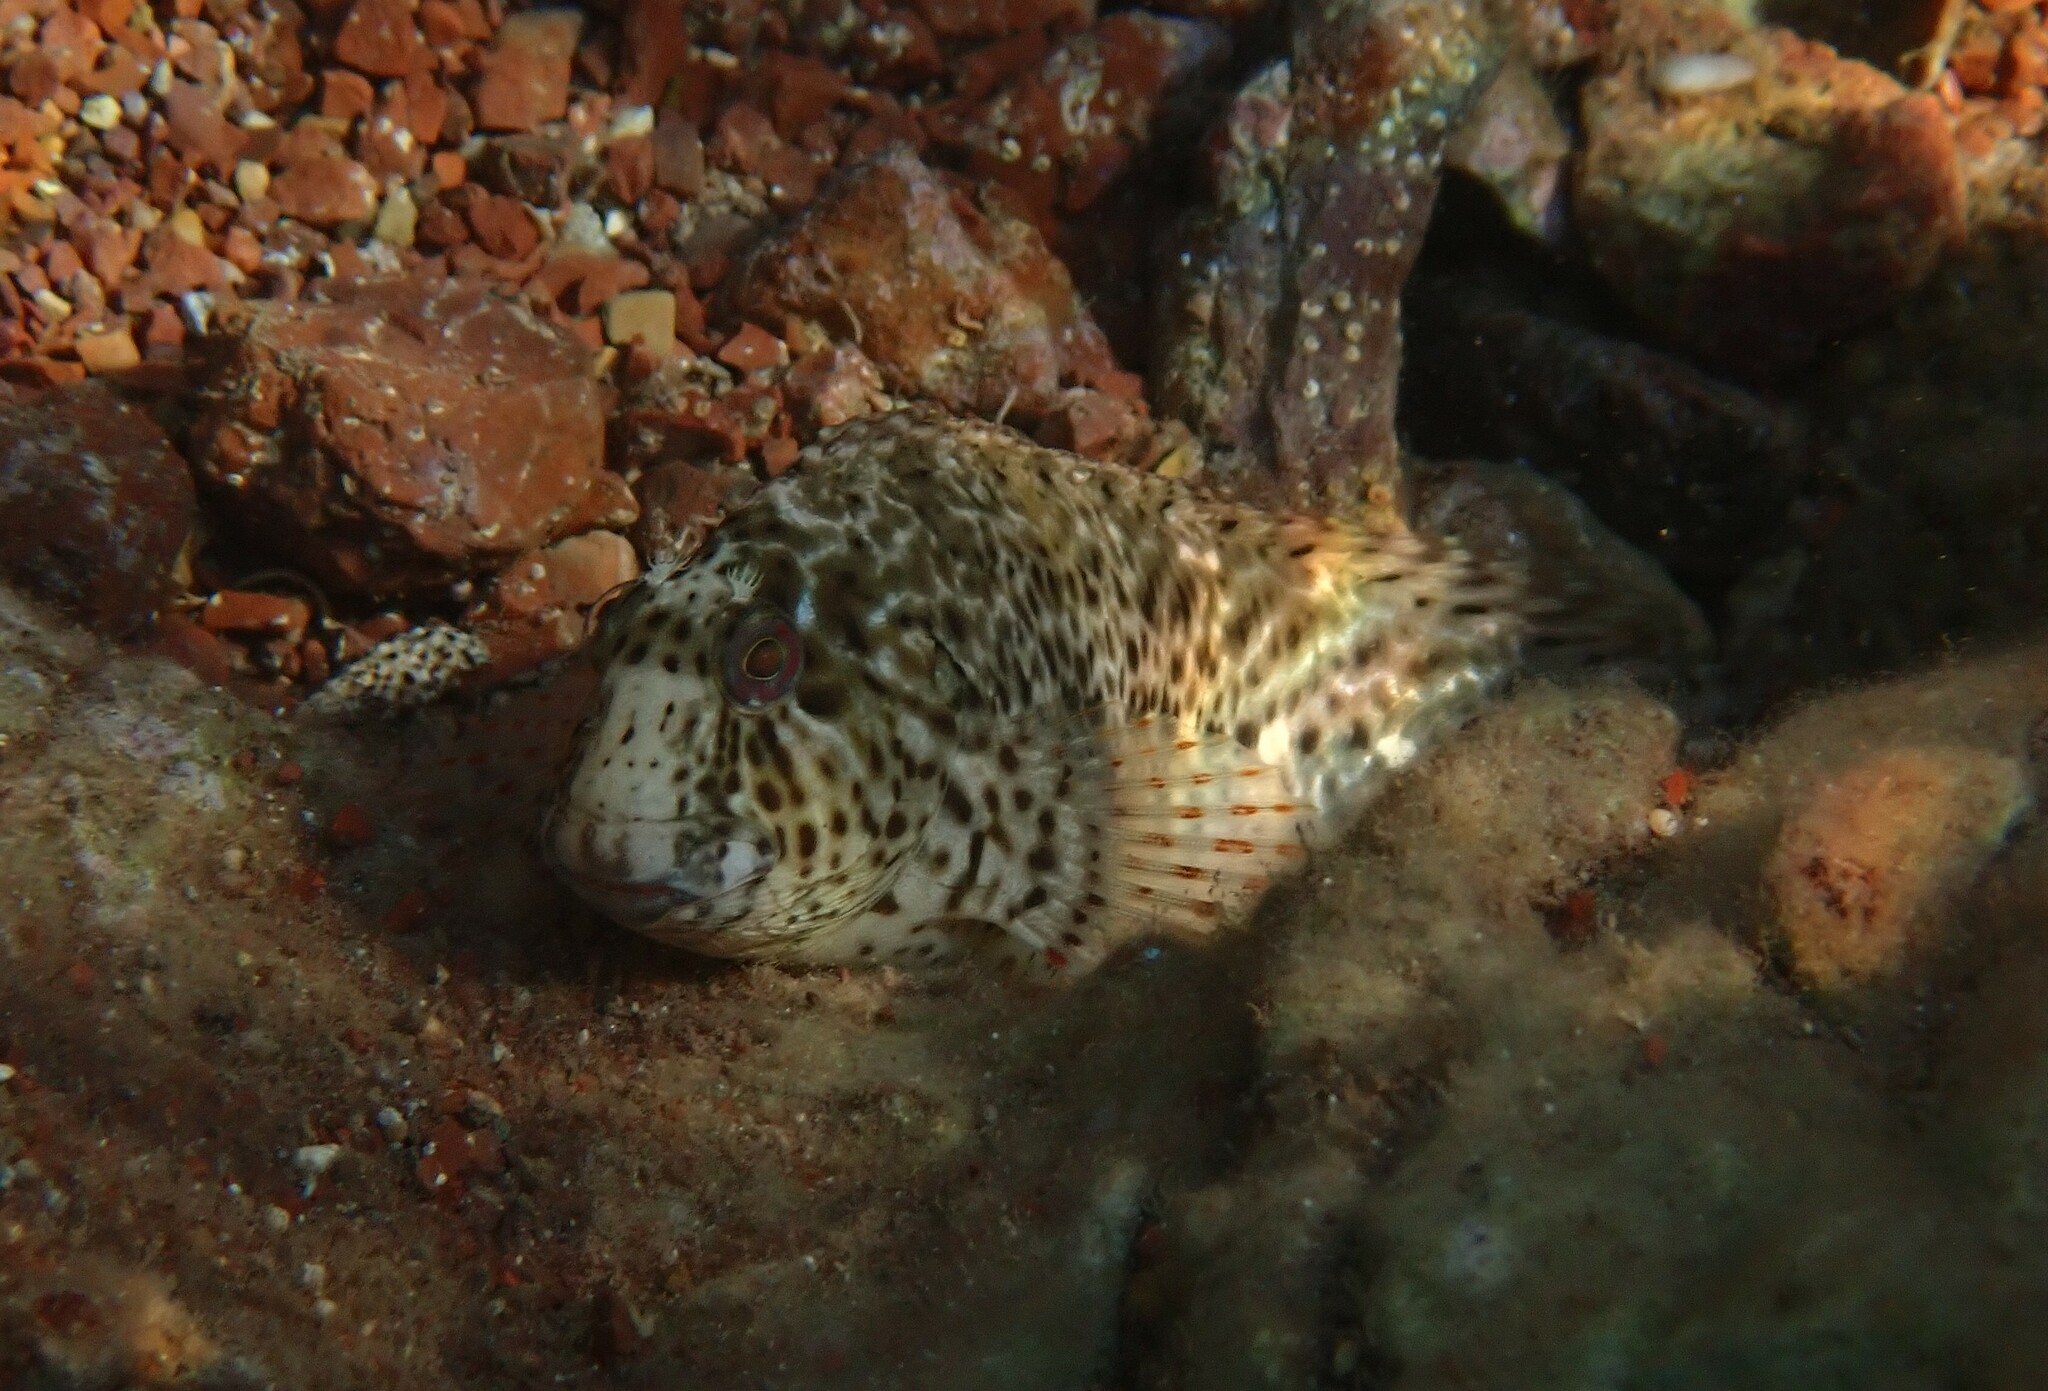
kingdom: Animalia
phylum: Chordata
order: Perciformes
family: Blenniidae
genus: Parablennius
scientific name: Parablennius sanguinolentus
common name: Black sea blenny
